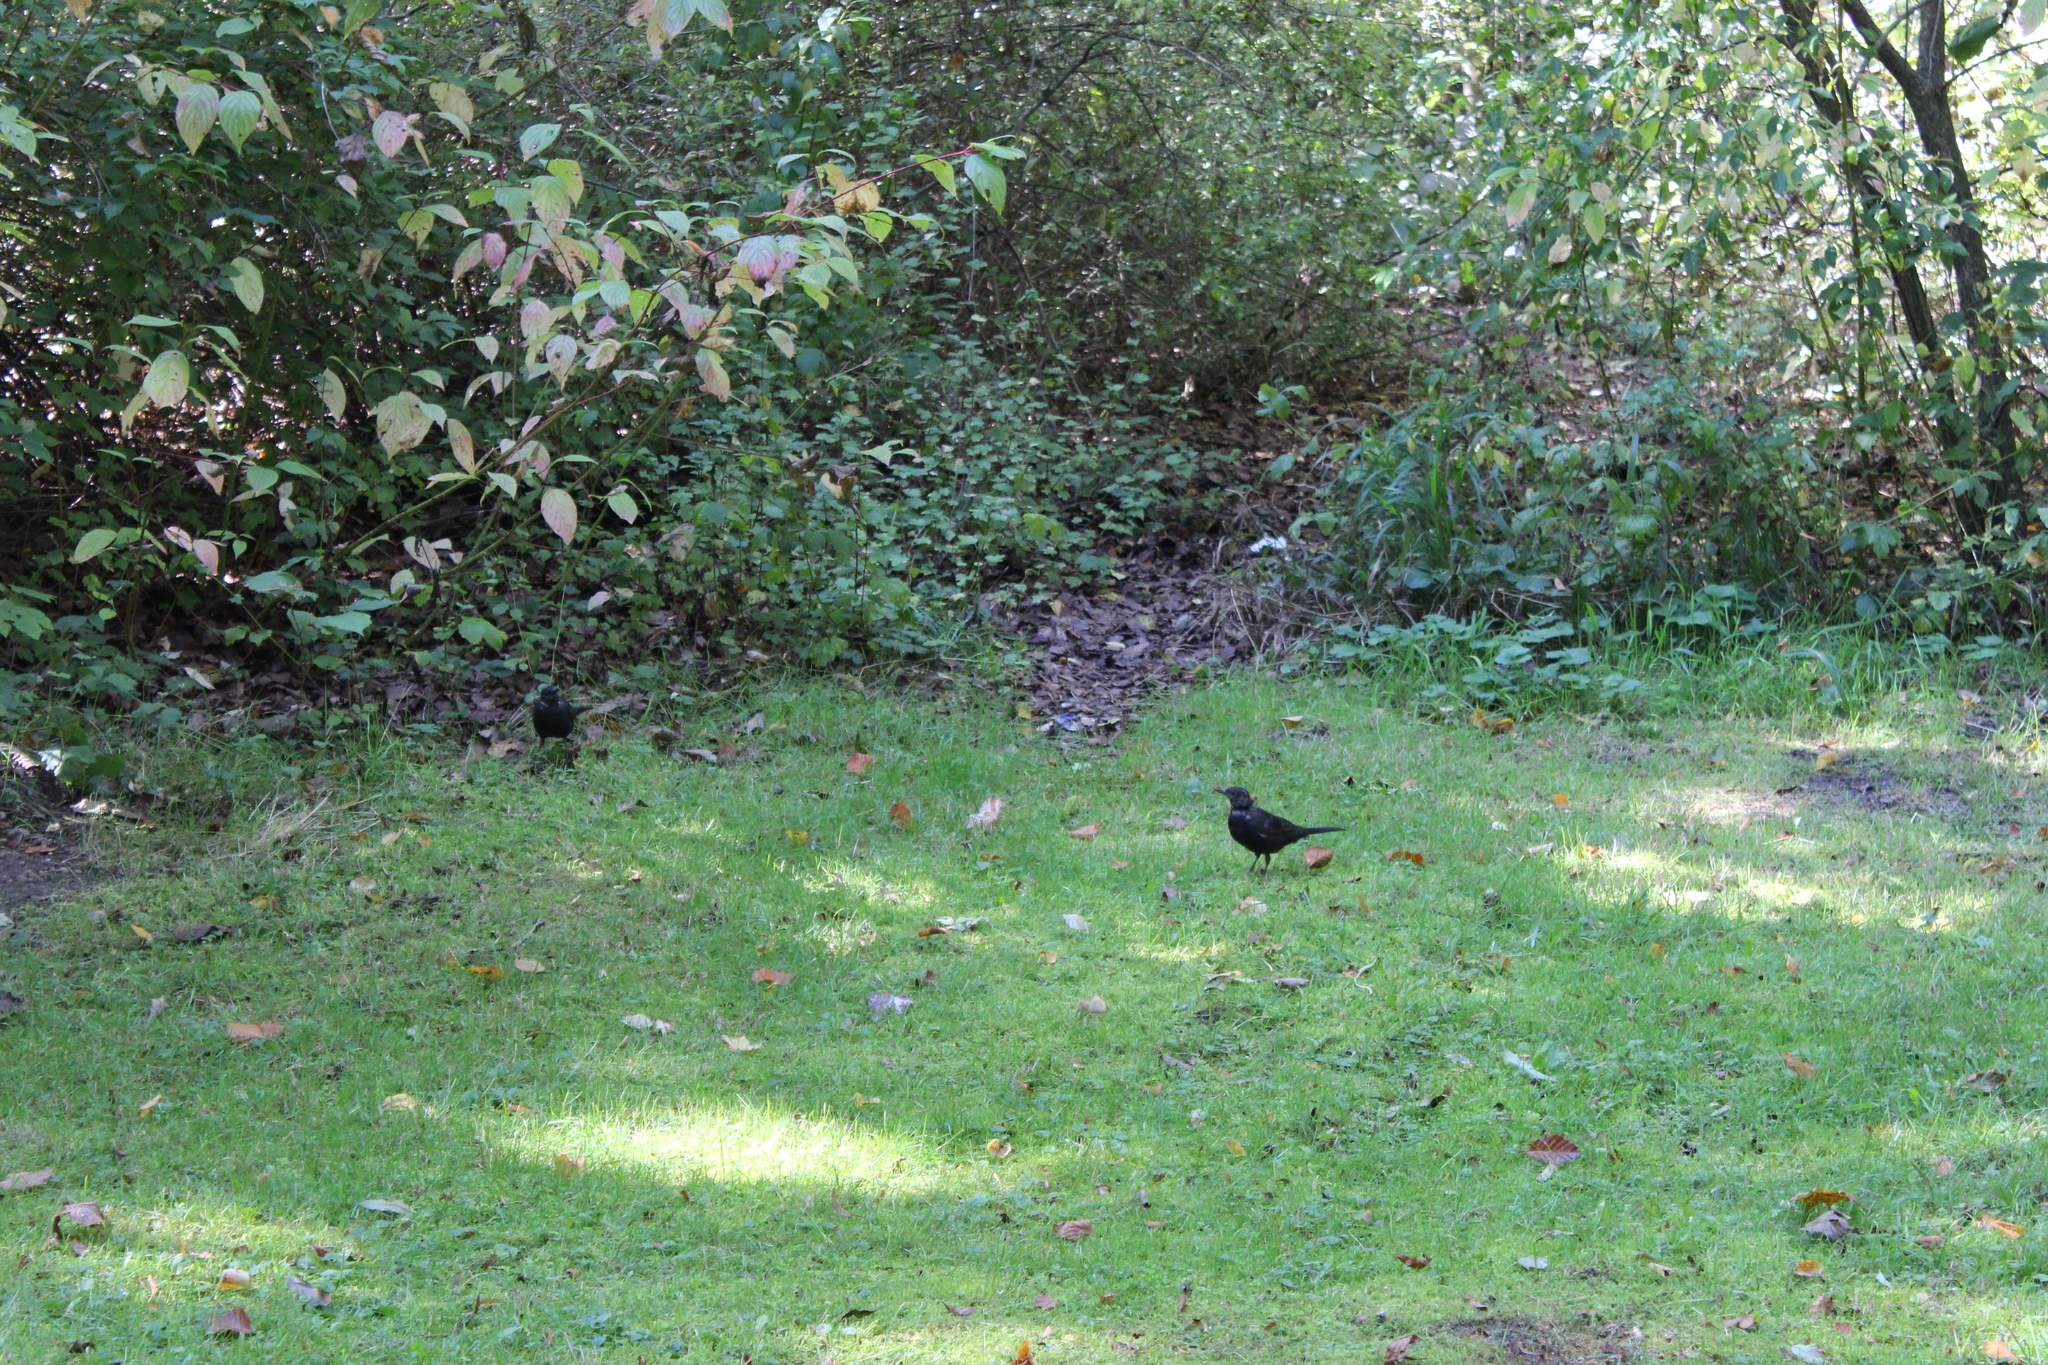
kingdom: Animalia
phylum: Chordata
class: Aves
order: Passeriformes
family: Turdidae
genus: Turdus
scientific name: Turdus merula
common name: Common blackbird
